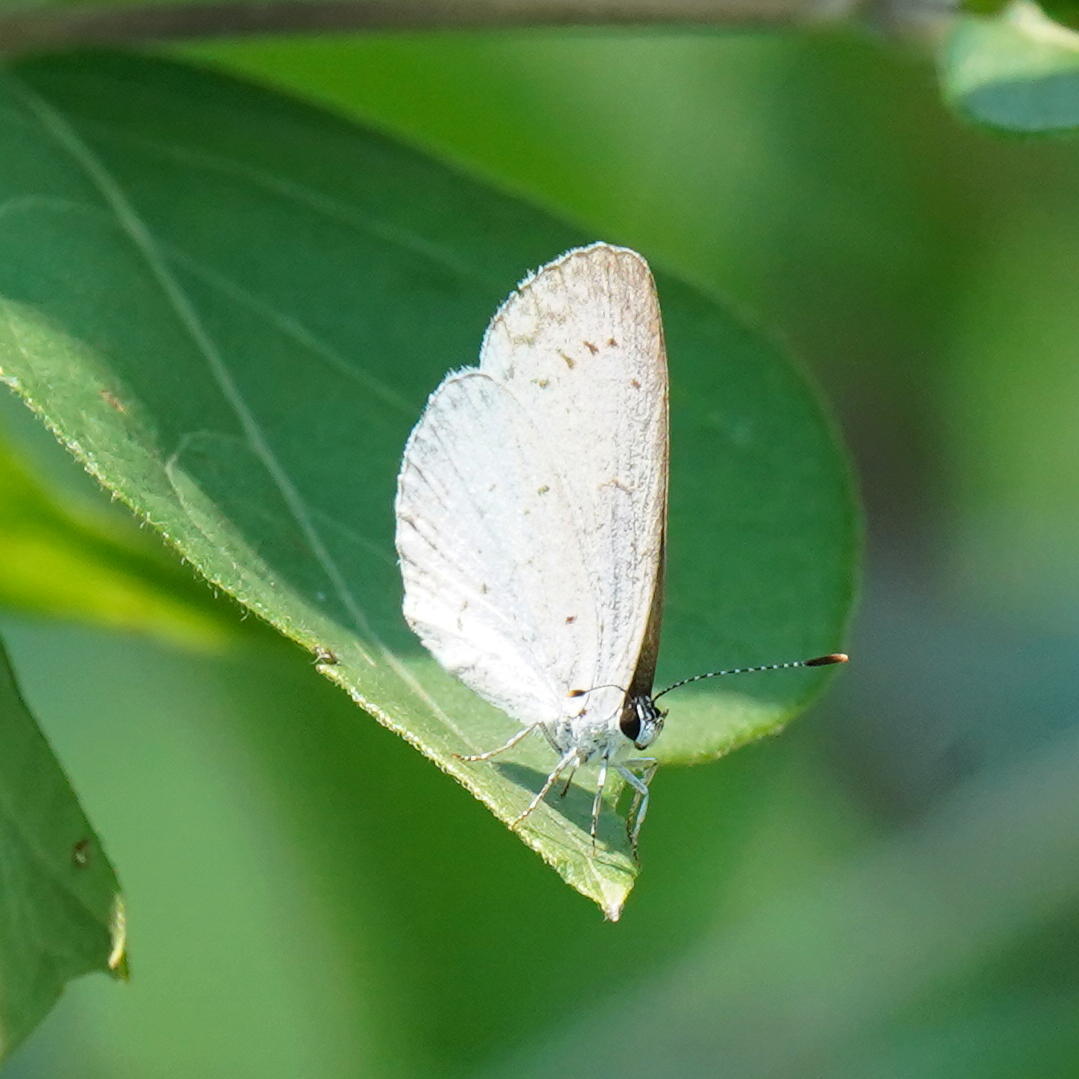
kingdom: Animalia
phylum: Arthropoda
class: Insecta
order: Lepidoptera
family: Lycaenidae
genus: Cyaniris
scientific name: Cyaniris neglecta
